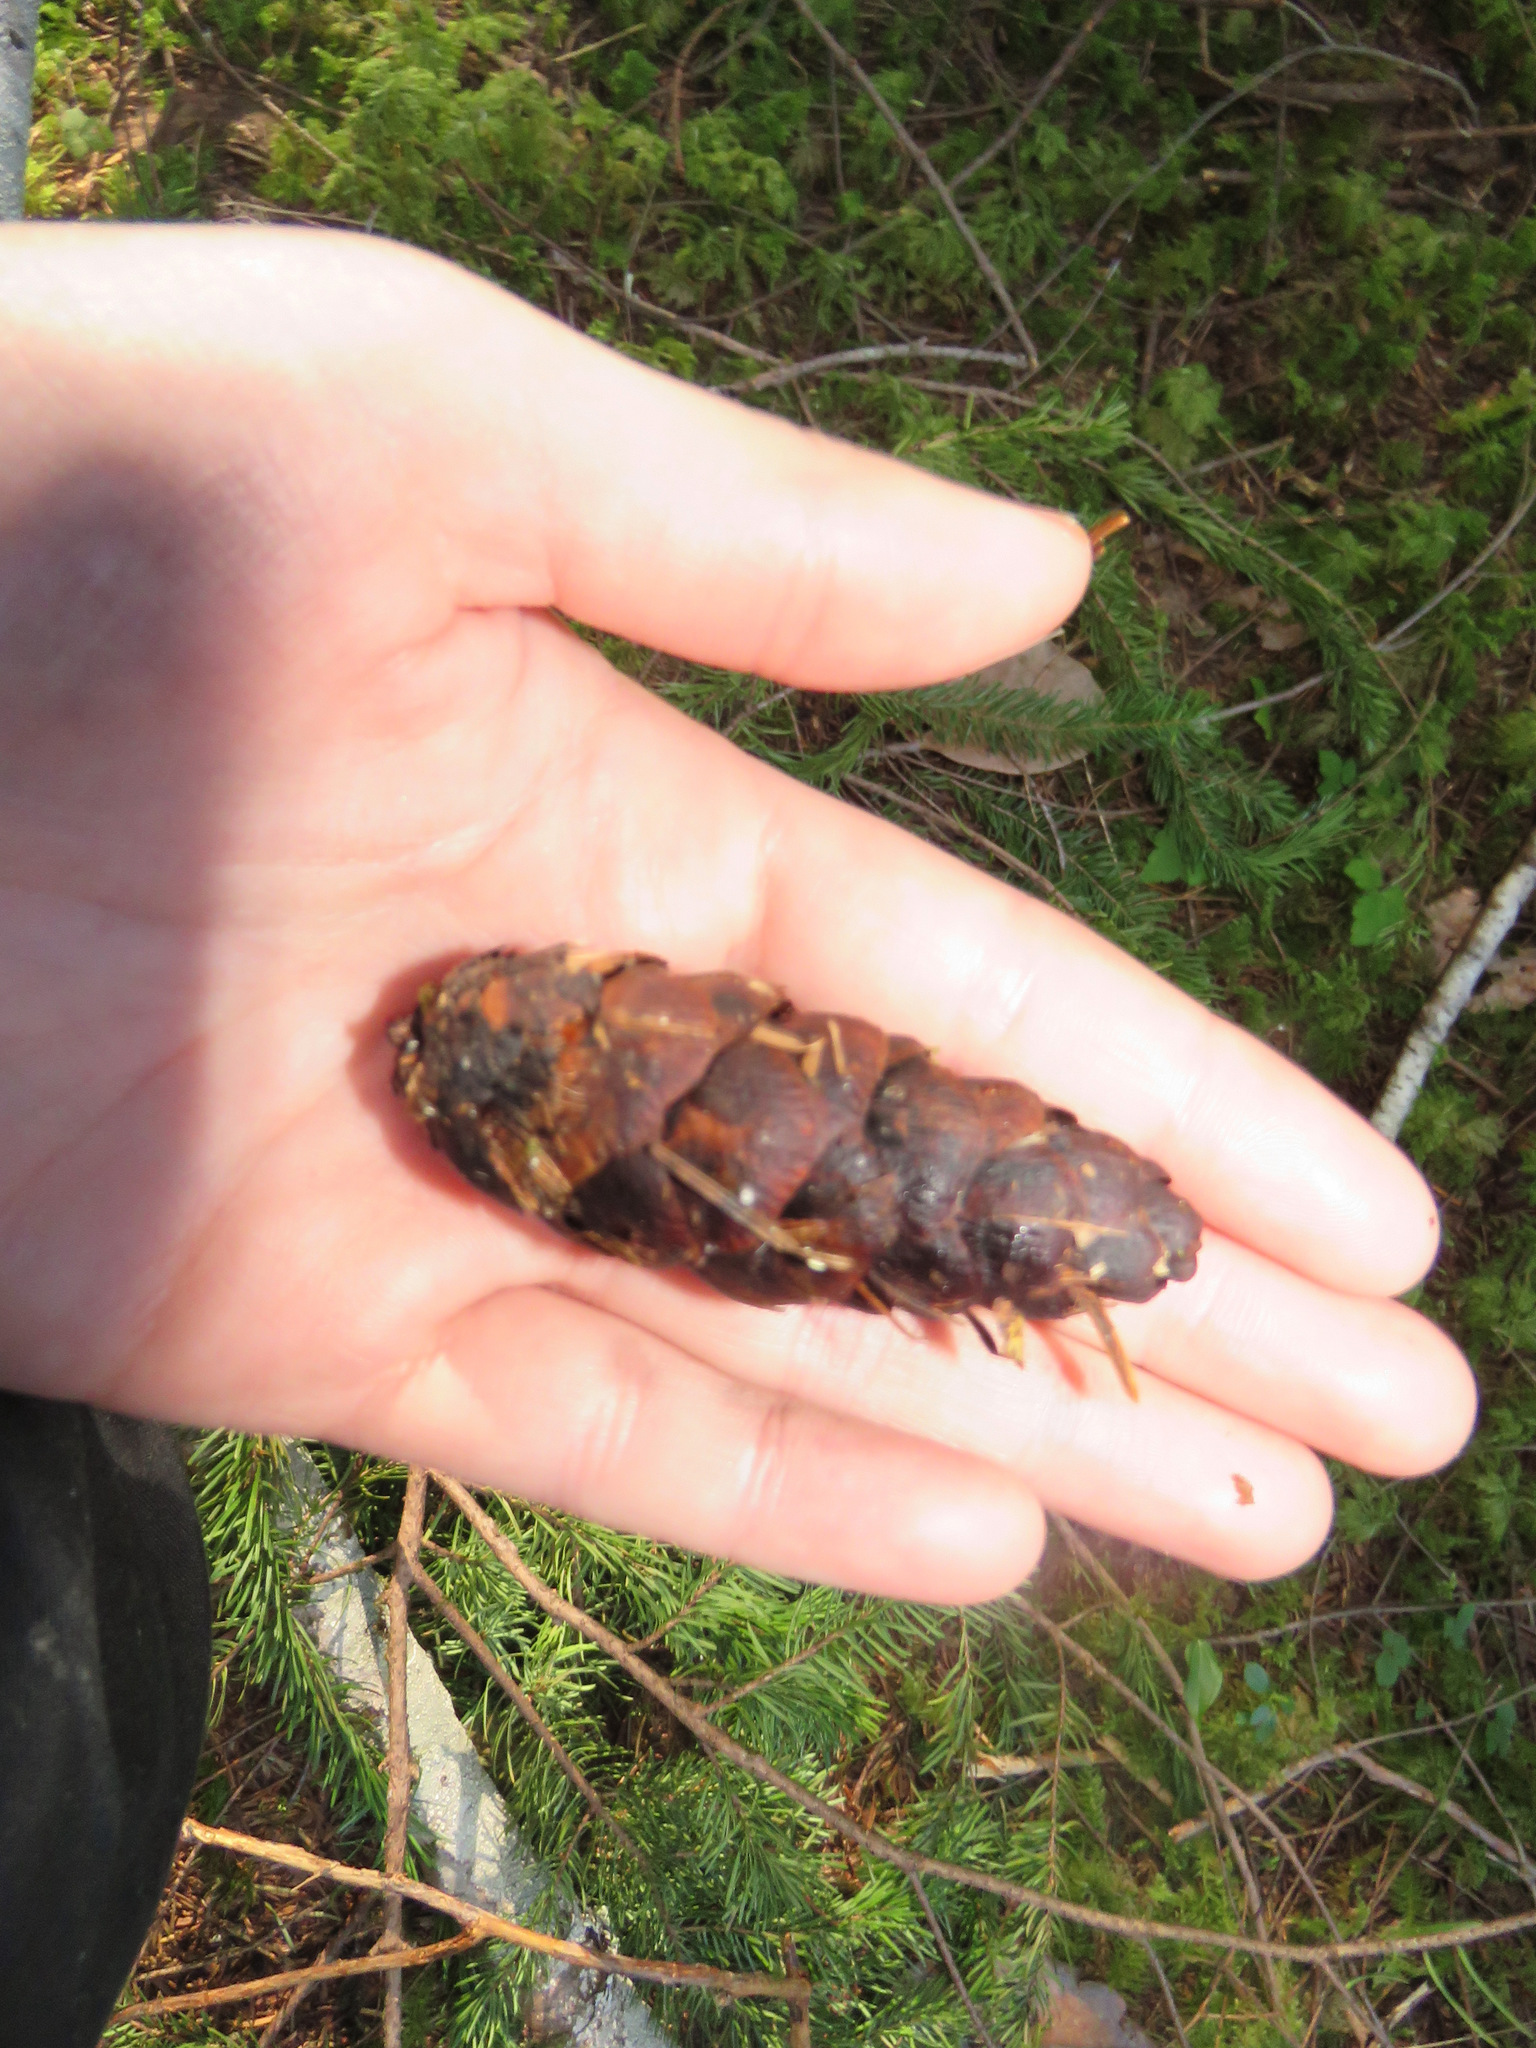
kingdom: Plantae
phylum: Tracheophyta
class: Pinopsida
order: Pinales
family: Pinaceae
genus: Pseudotsuga
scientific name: Pseudotsuga menziesii
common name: Douglas fir
